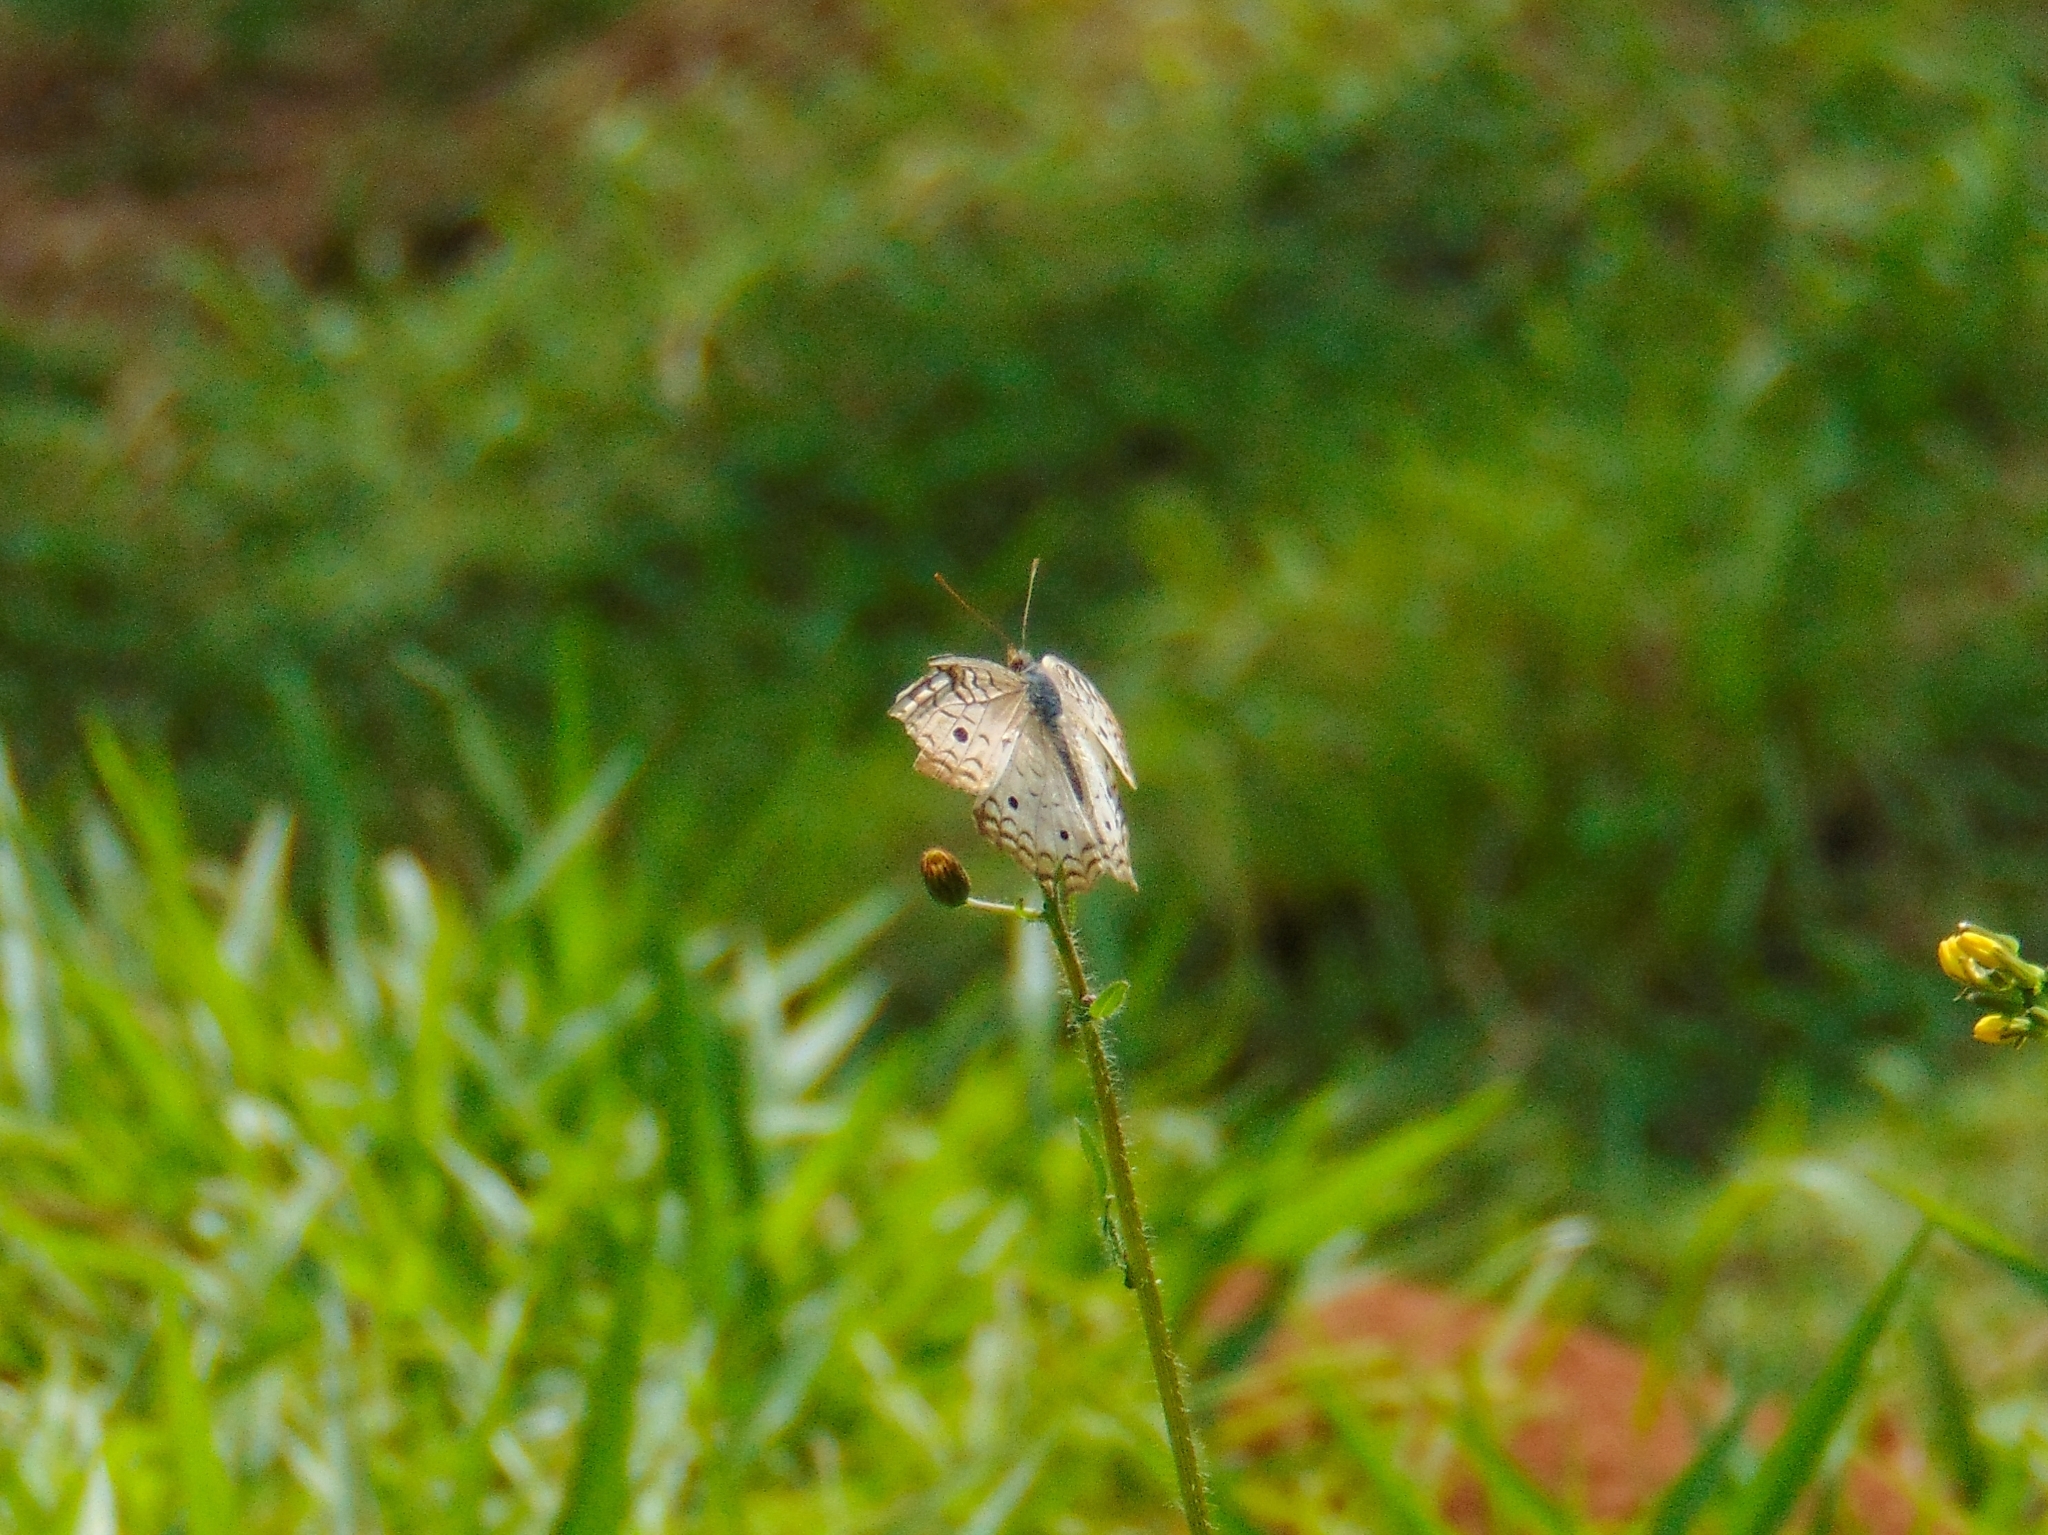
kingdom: Animalia
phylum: Arthropoda
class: Insecta
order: Lepidoptera
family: Nymphalidae
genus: Anartia
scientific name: Anartia jatrophae
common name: White peacock
